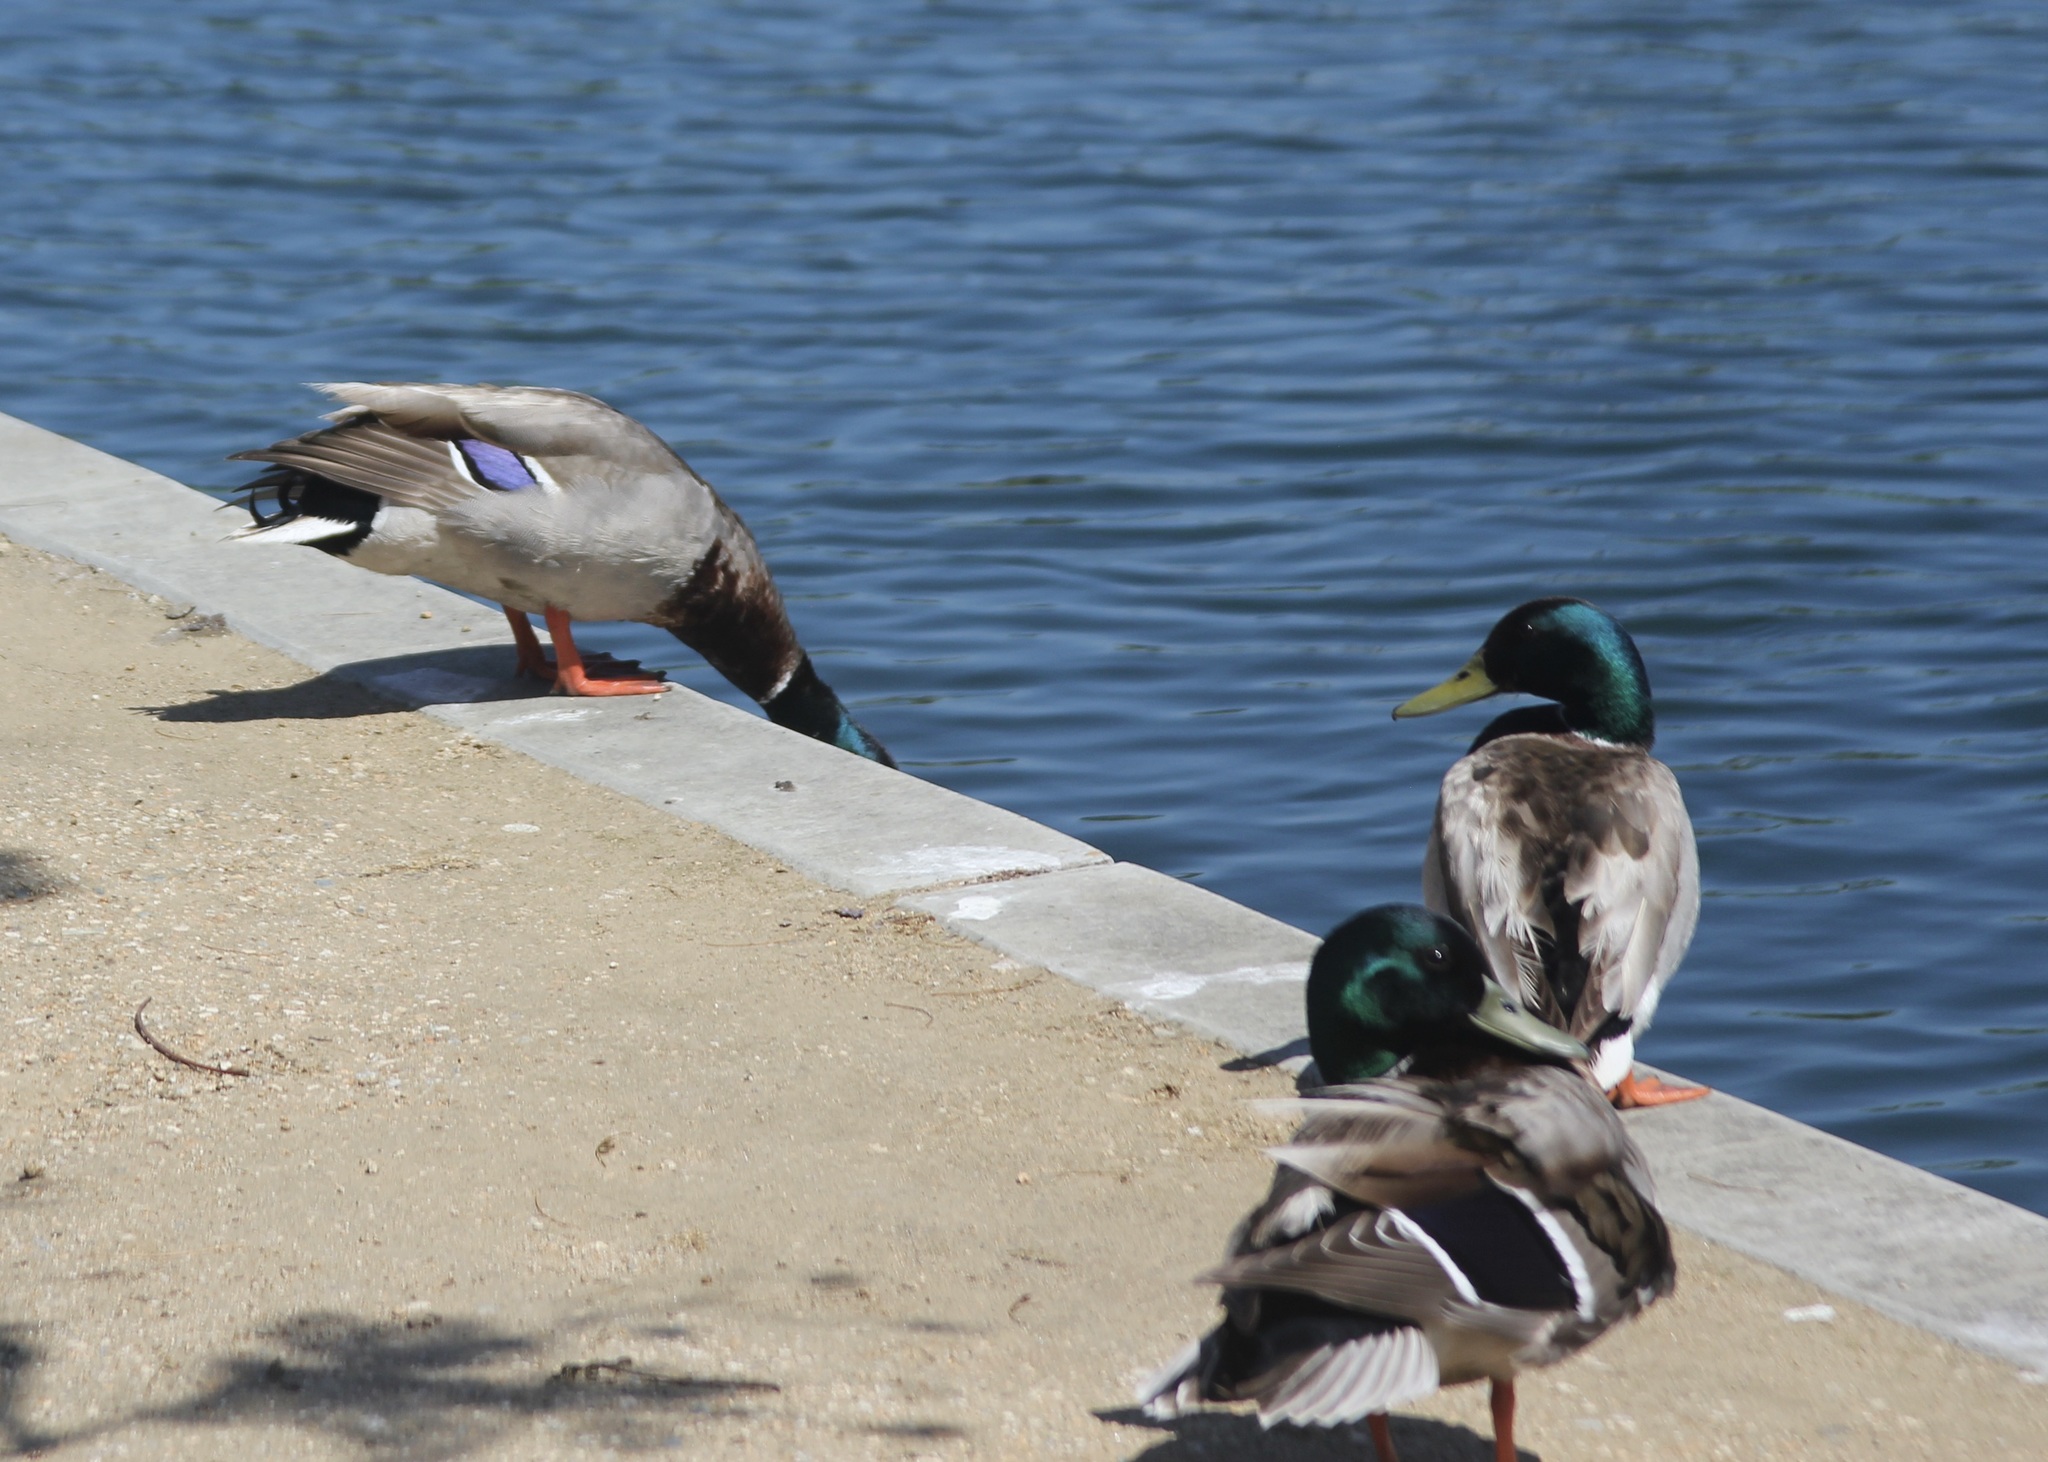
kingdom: Animalia
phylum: Chordata
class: Aves
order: Anseriformes
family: Anatidae
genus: Anas
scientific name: Anas platyrhynchos
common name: Mallard
